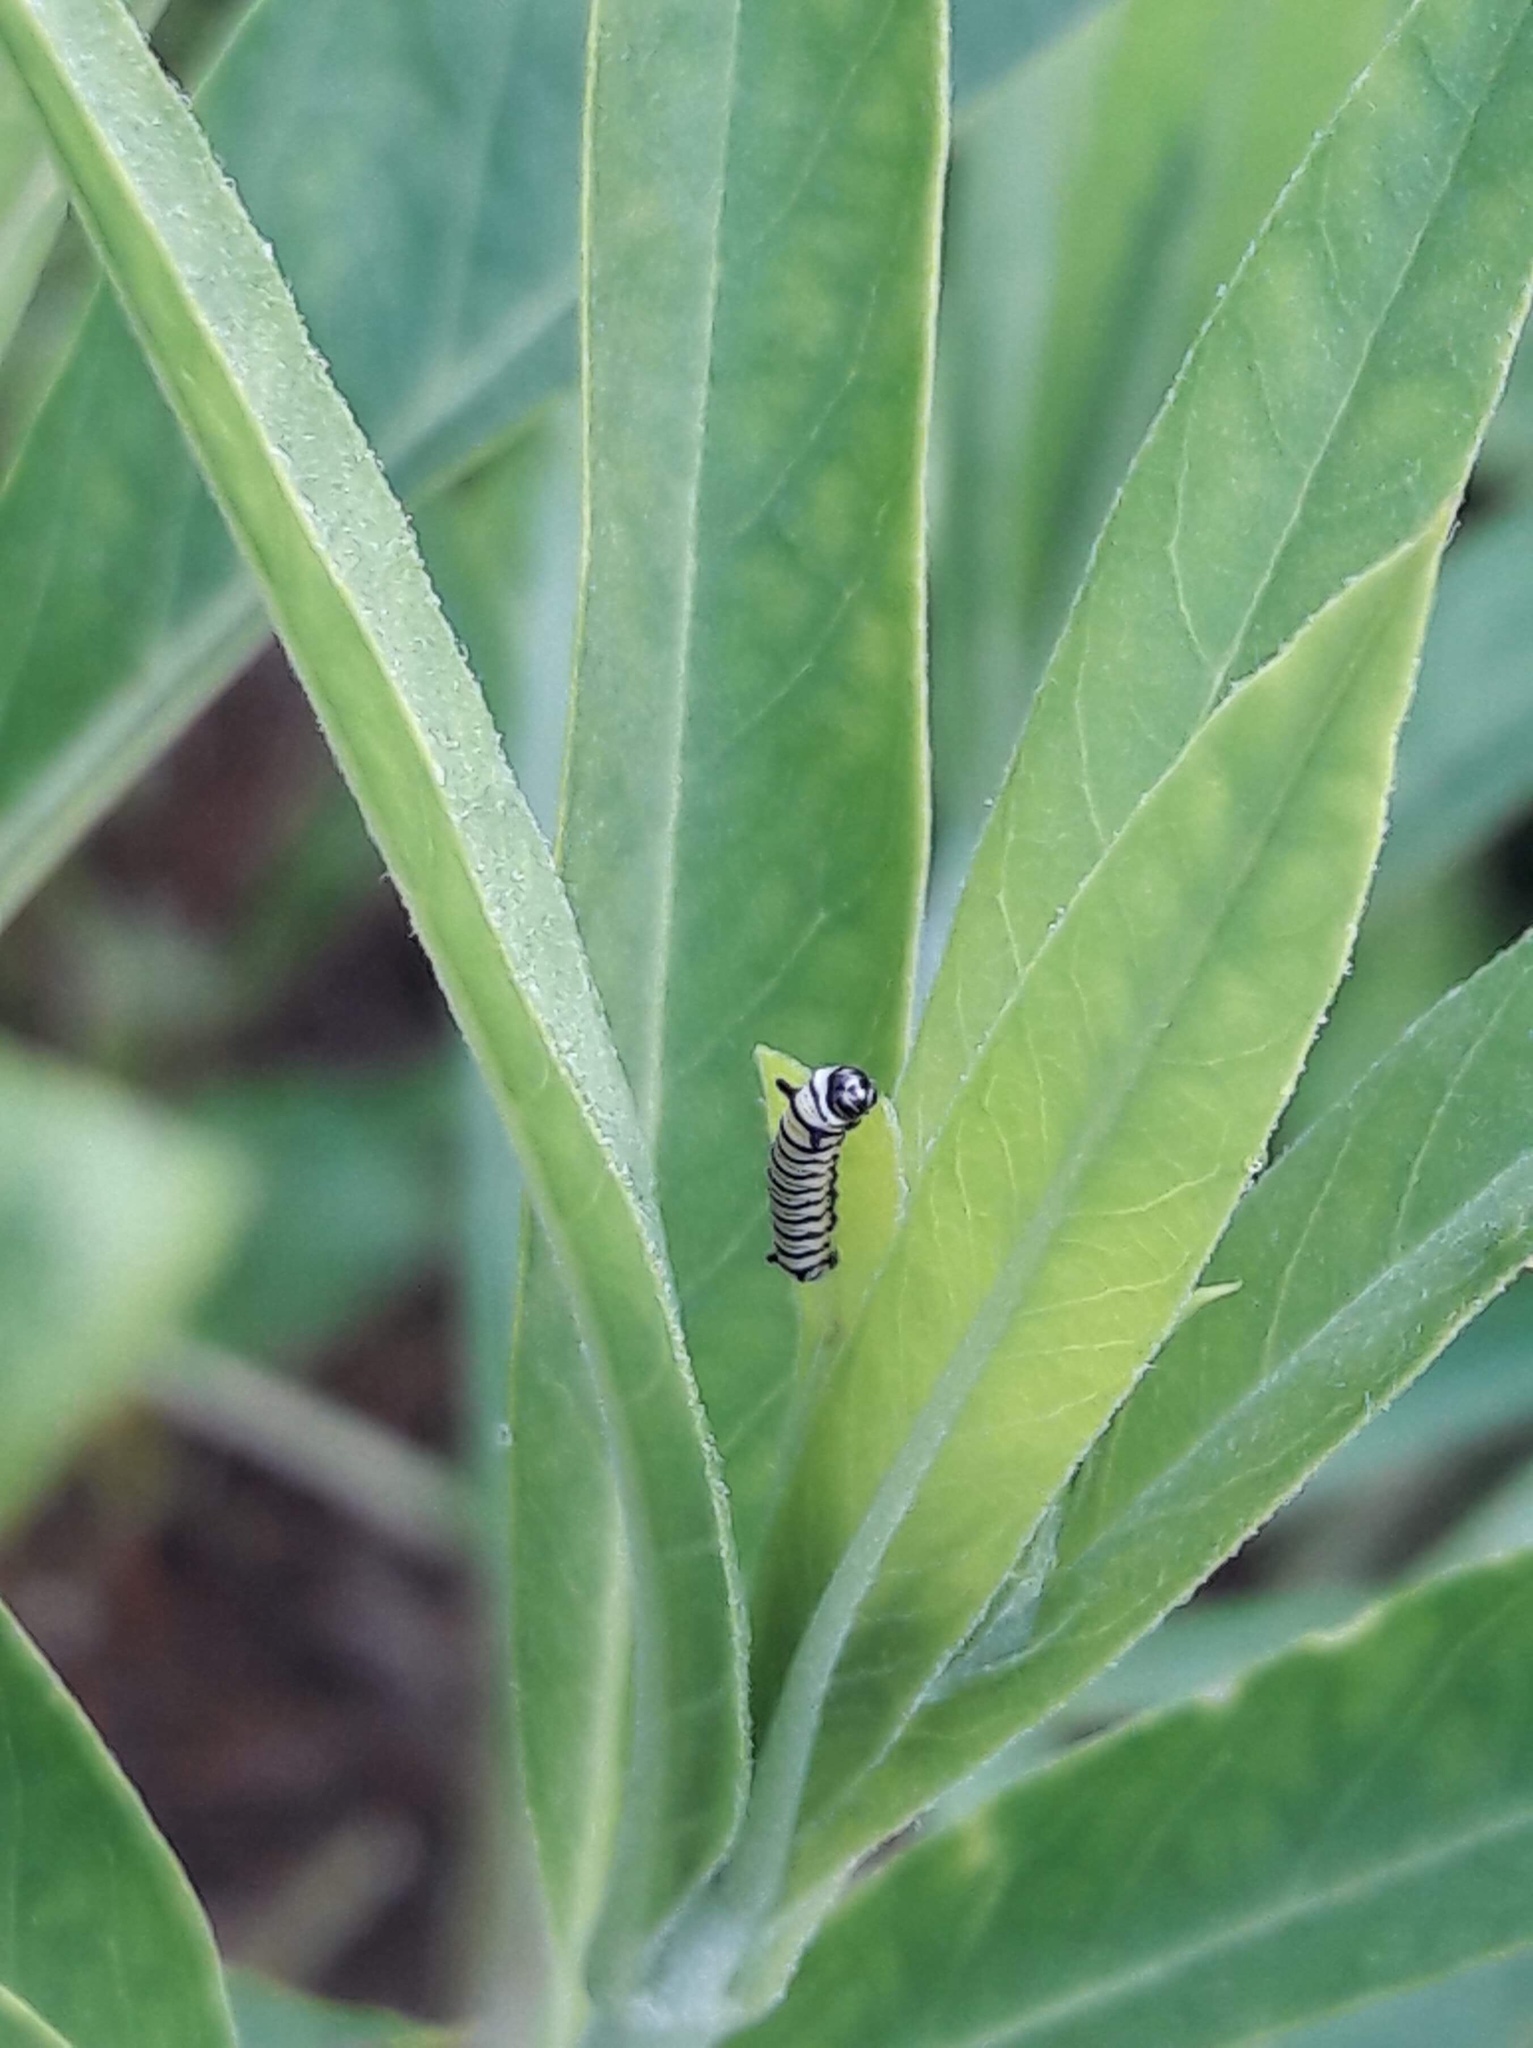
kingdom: Animalia
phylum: Arthropoda
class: Insecta
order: Lepidoptera
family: Nymphalidae
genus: Danaus
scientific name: Danaus plexippus
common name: Monarch
